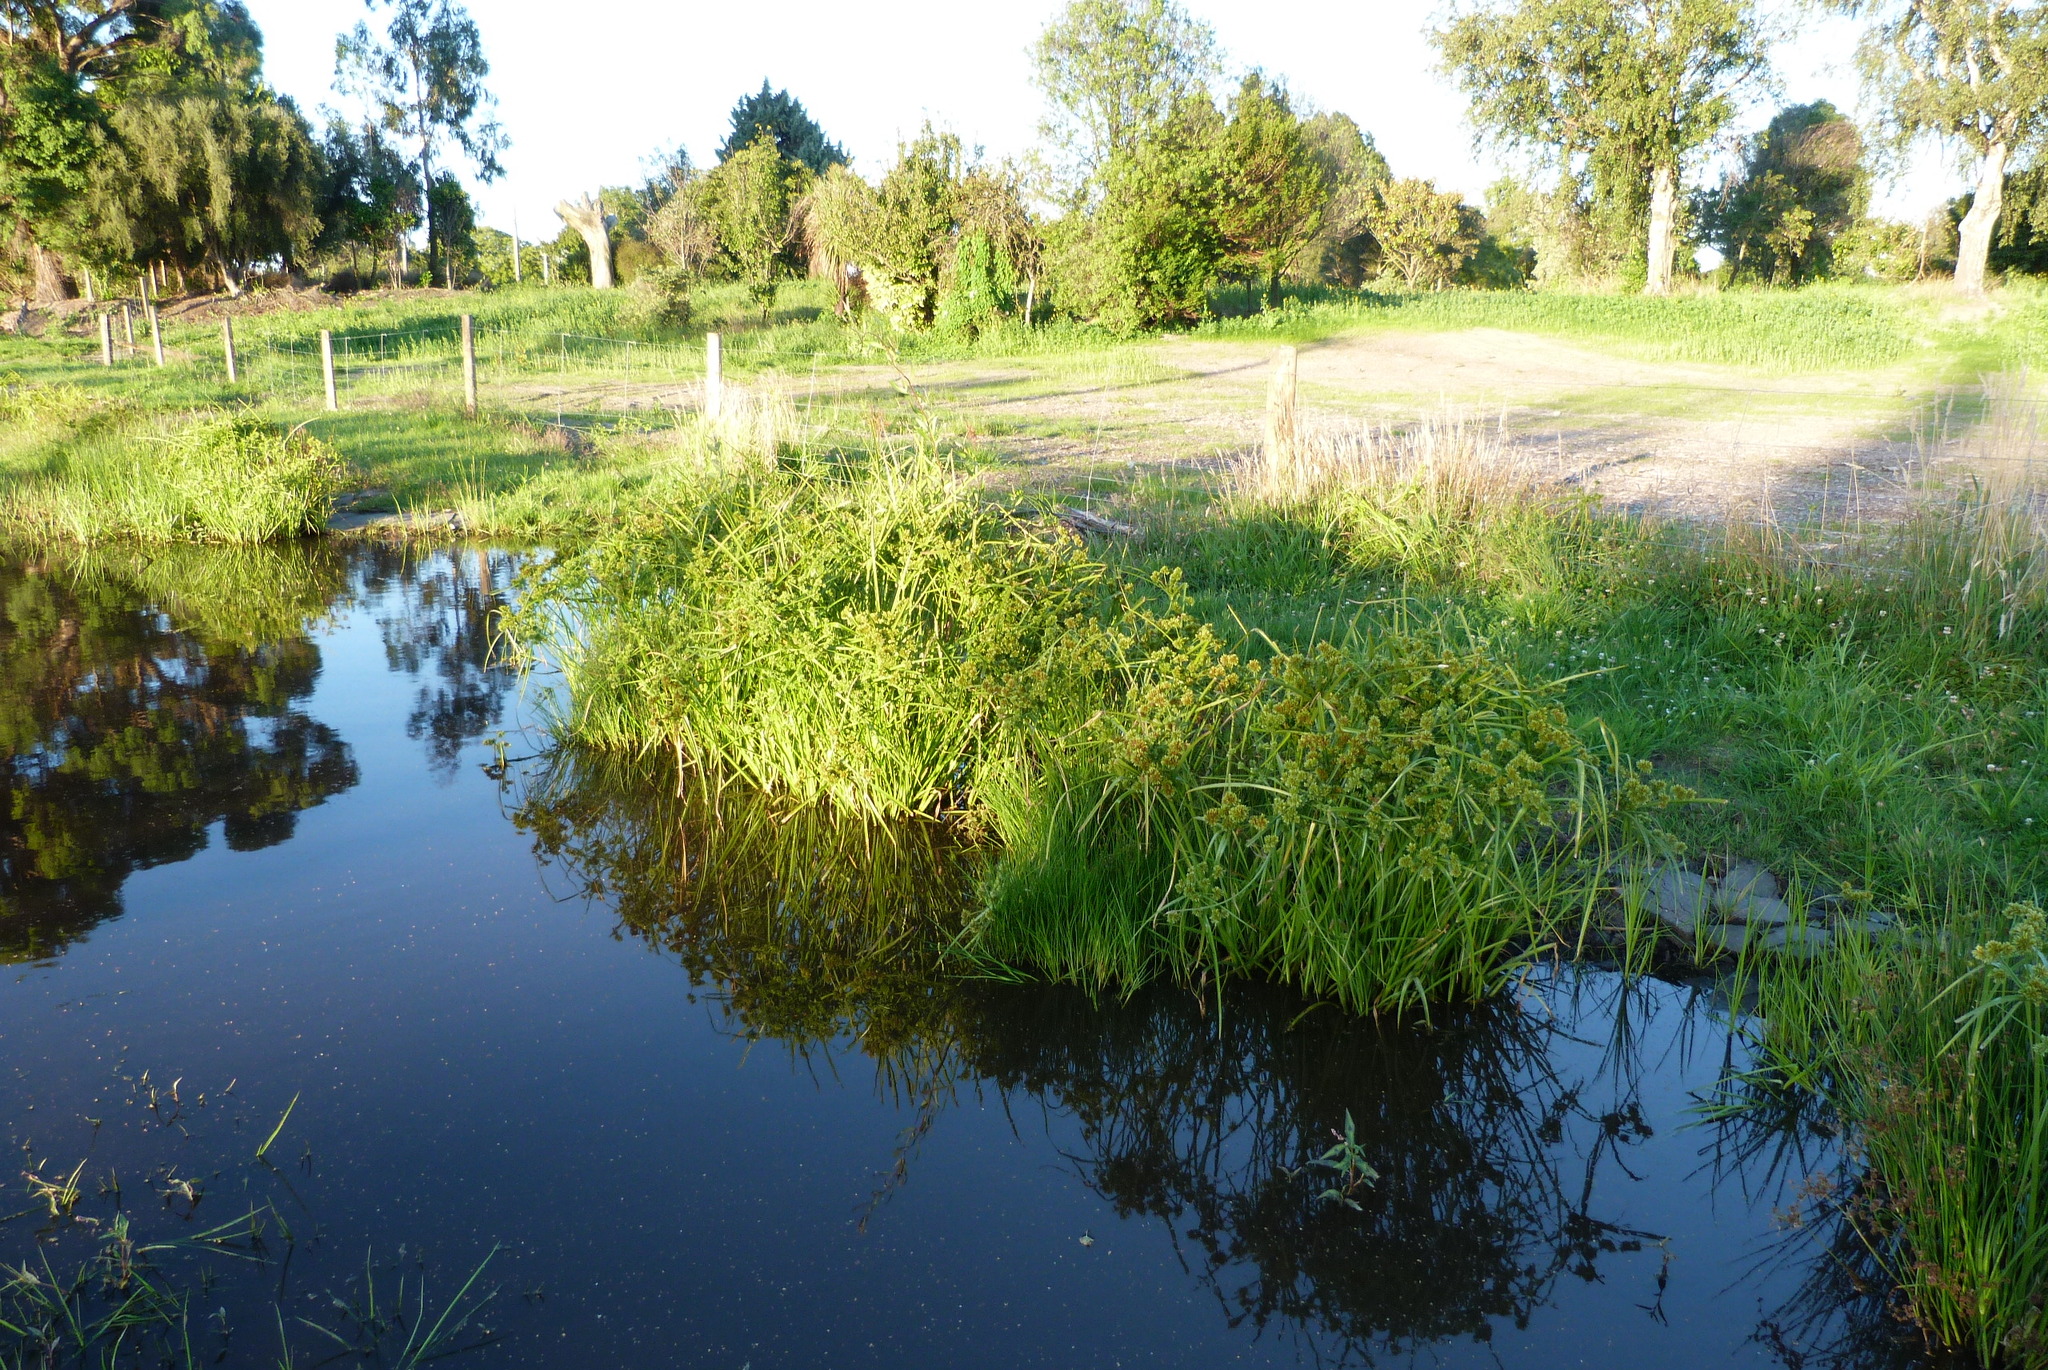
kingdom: Plantae
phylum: Tracheophyta
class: Liliopsida
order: Poales
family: Cyperaceae
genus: Cyperus
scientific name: Cyperus eragrostis
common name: Tall flatsedge
